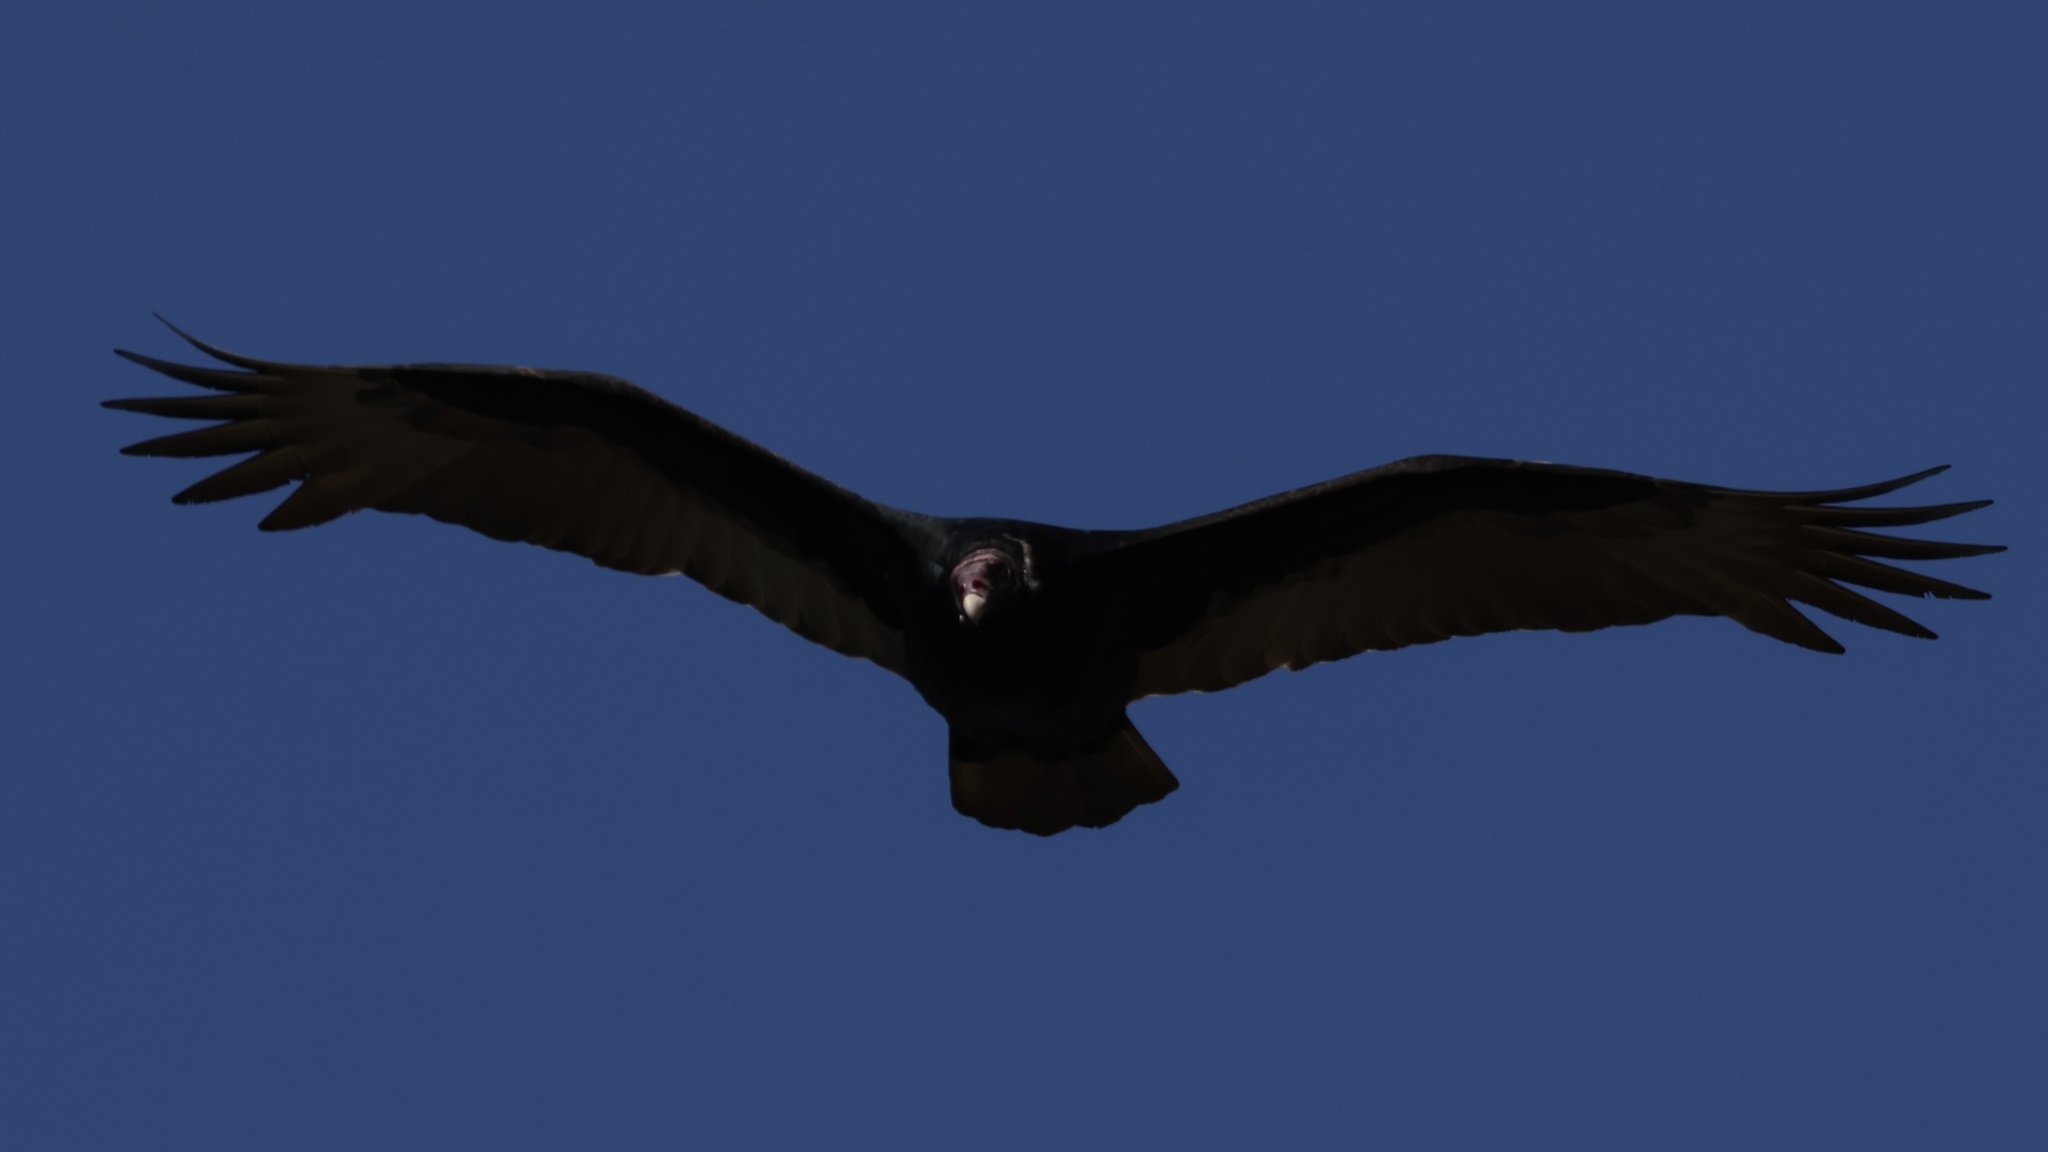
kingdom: Animalia
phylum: Chordata
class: Aves
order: Accipitriformes
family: Cathartidae
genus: Cathartes
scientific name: Cathartes aura
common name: Turkey vulture
